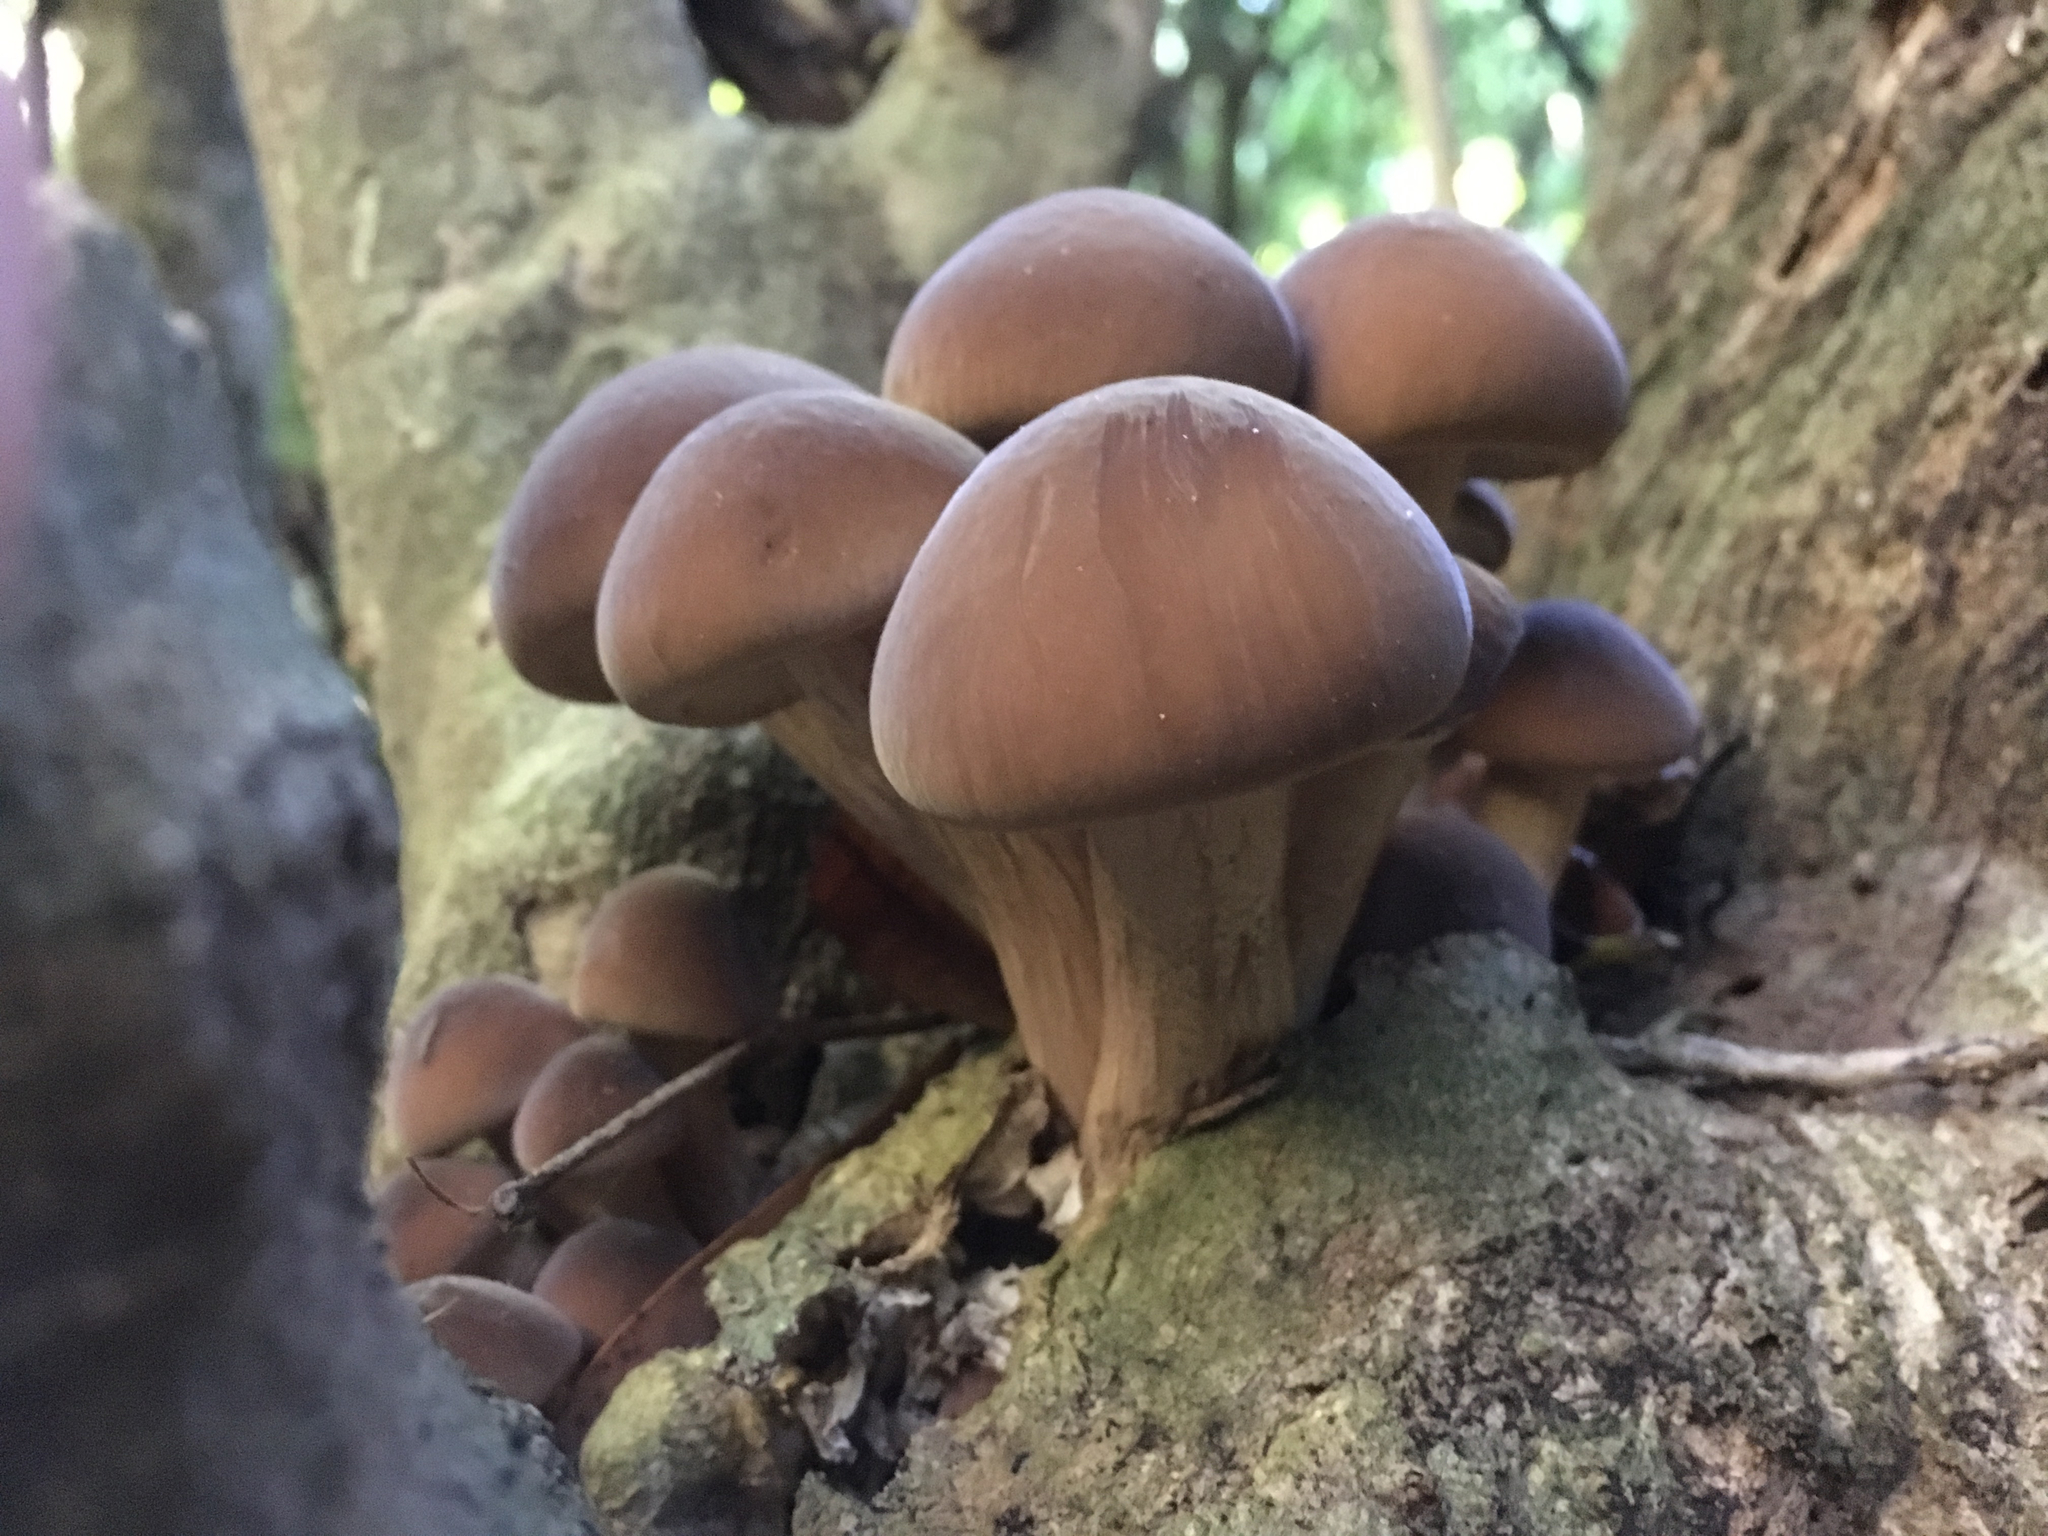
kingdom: Fungi
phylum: Basidiomycota
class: Agaricomycetes
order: Agaricales
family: Tubariaceae
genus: Cyclocybe
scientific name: Cyclocybe parasitica
